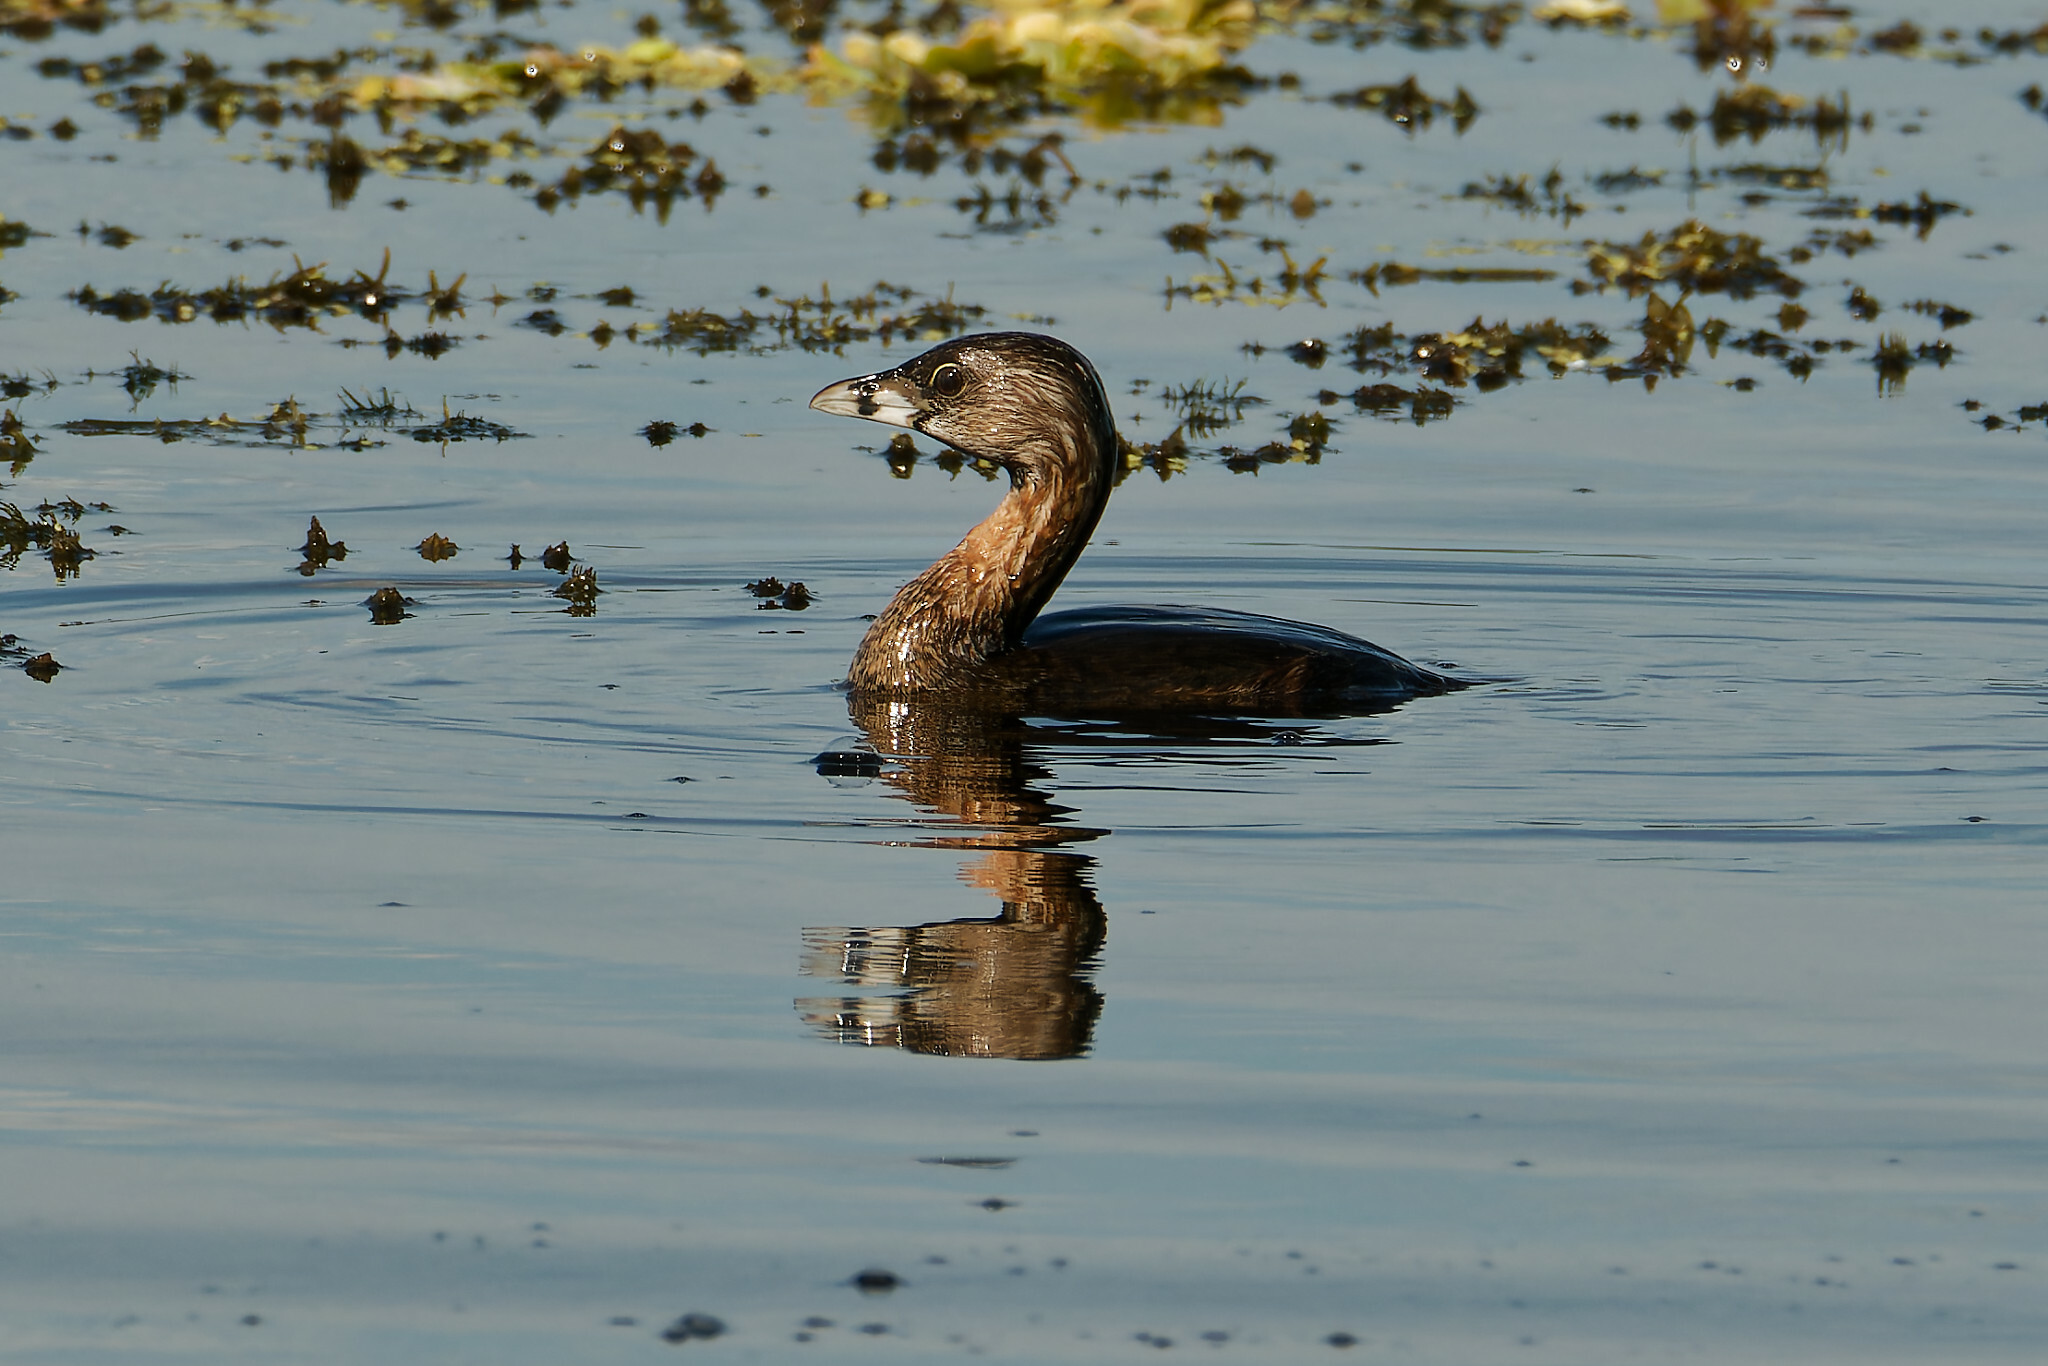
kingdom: Animalia
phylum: Chordata
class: Aves
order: Podicipediformes
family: Podicipedidae
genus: Podilymbus
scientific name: Podilymbus podiceps
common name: Pied-billed grebe
